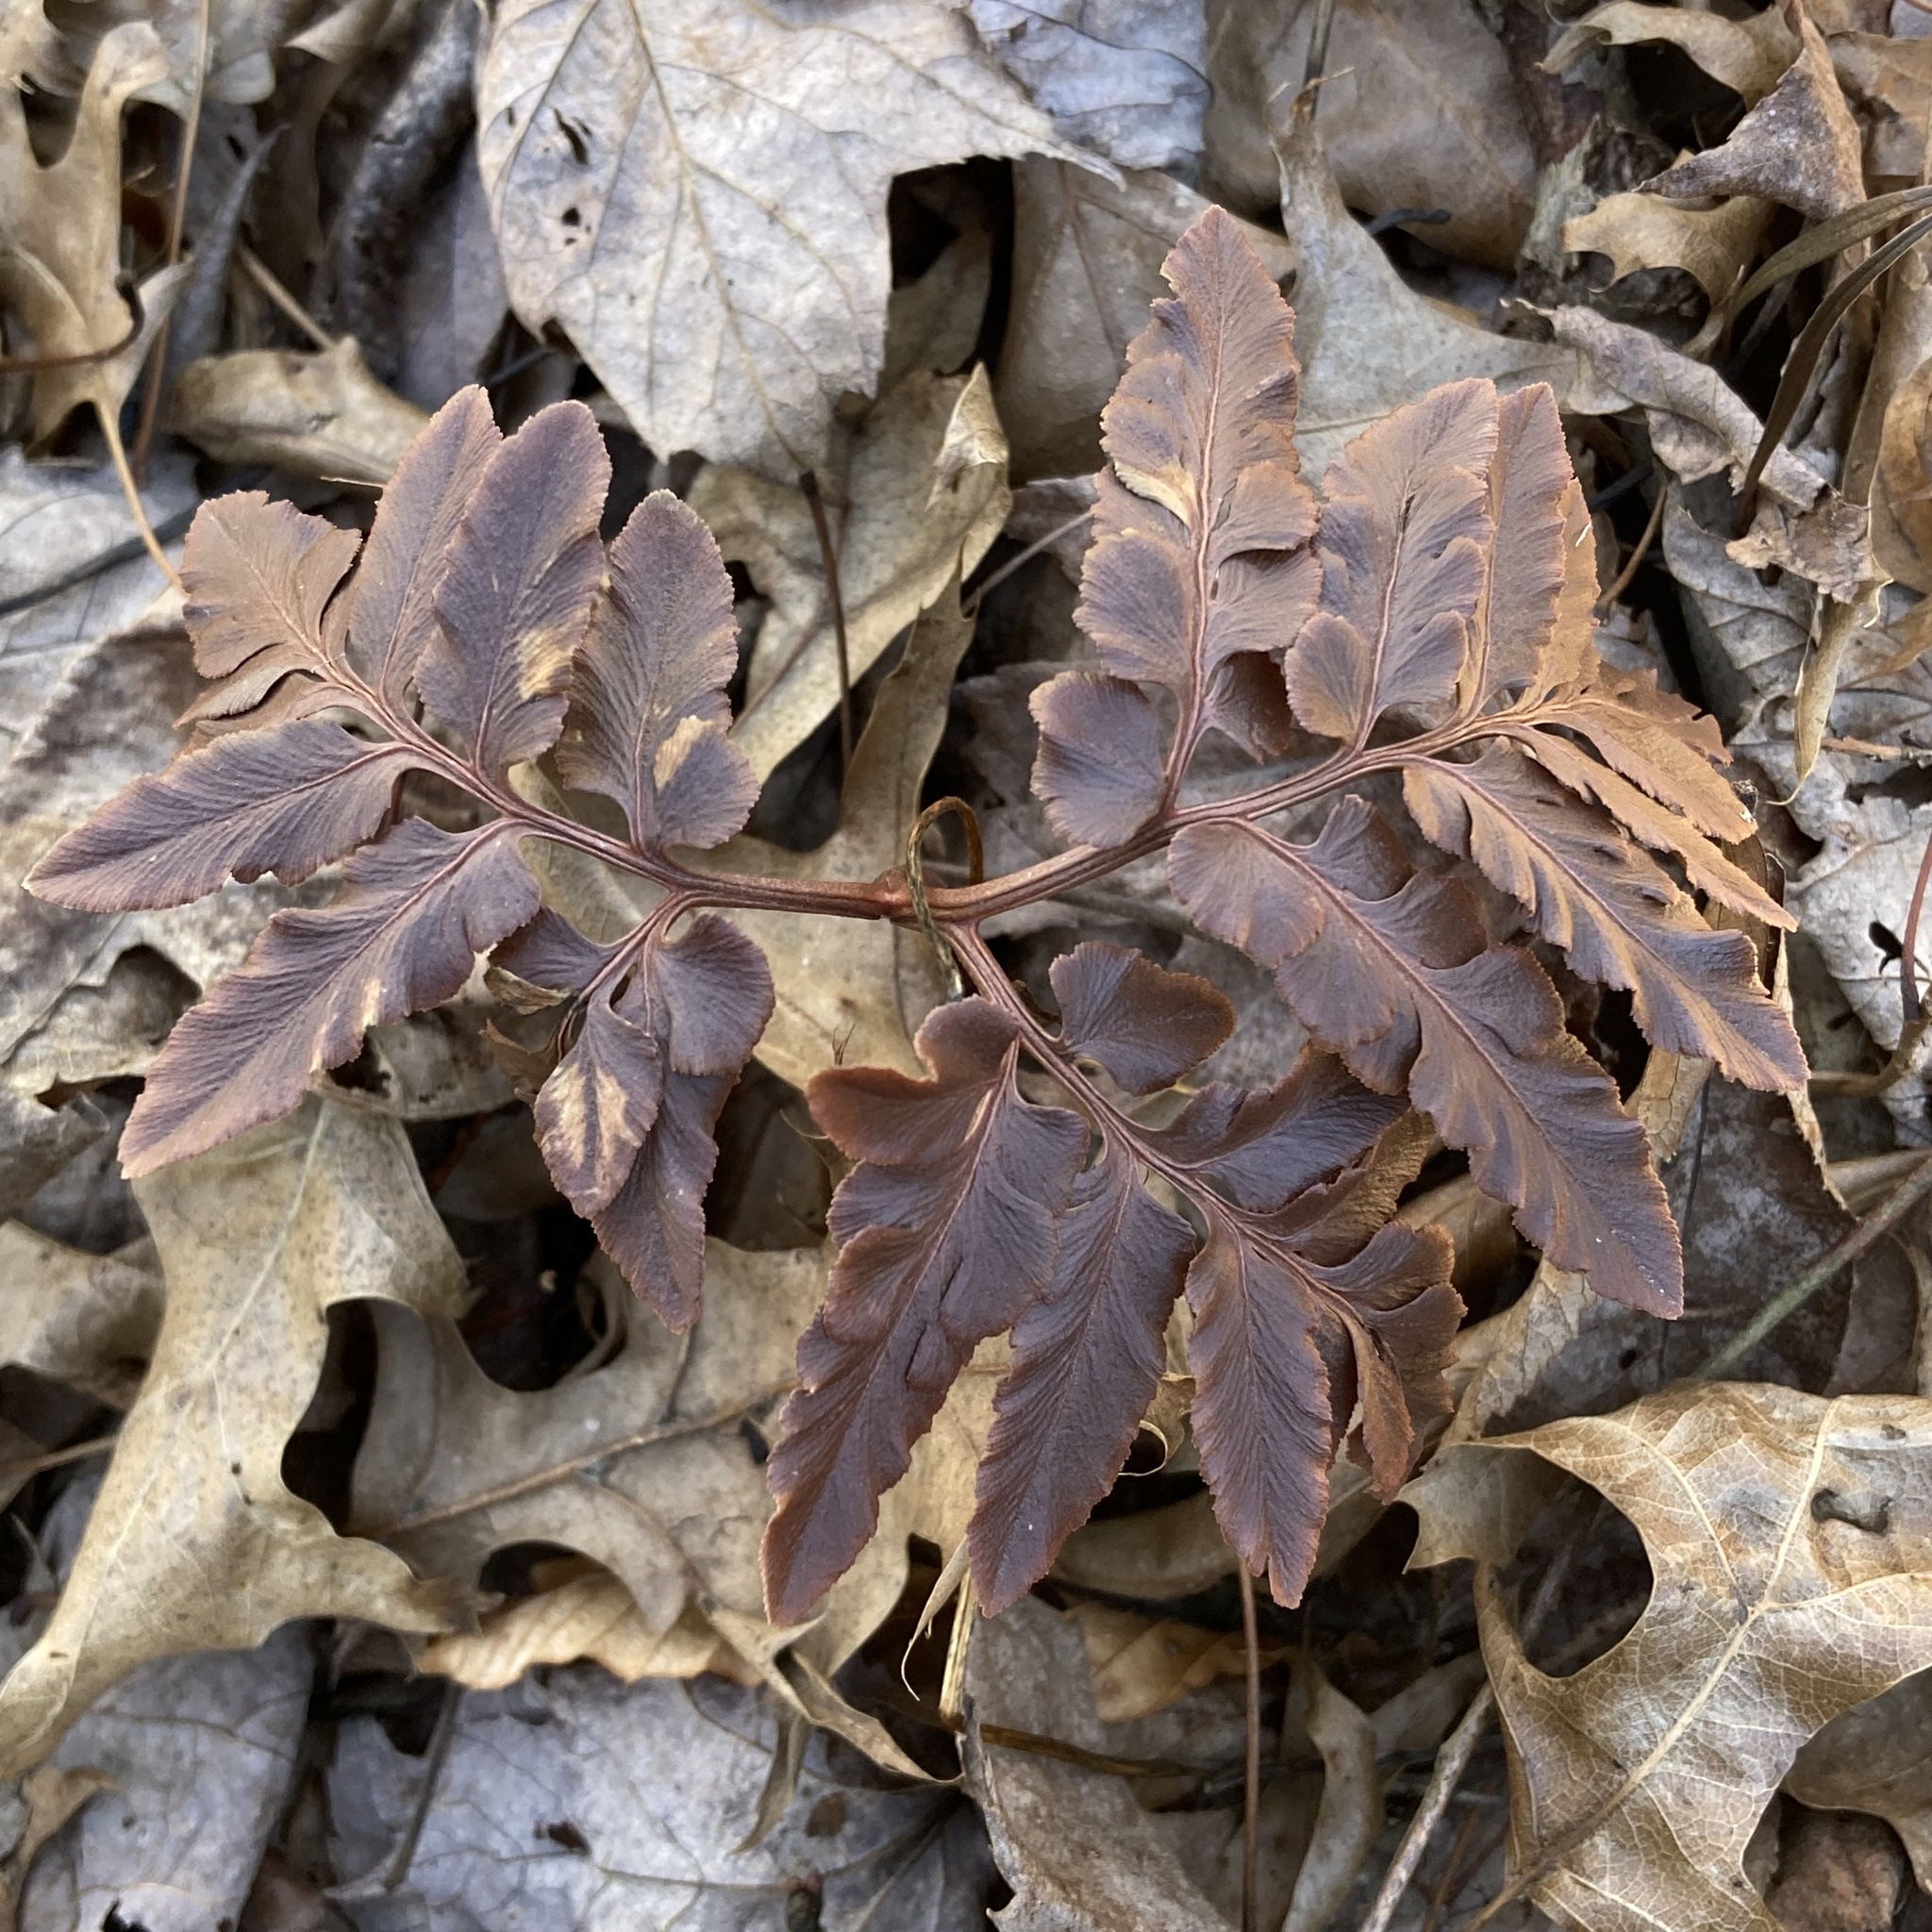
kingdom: Plantae
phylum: Tracheophyta
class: Polypodiopsida
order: Ophioglossales
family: Ophioglossaceae
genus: Sceptridium
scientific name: Sceptridium dissectum
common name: Cut-leaved grapefern
